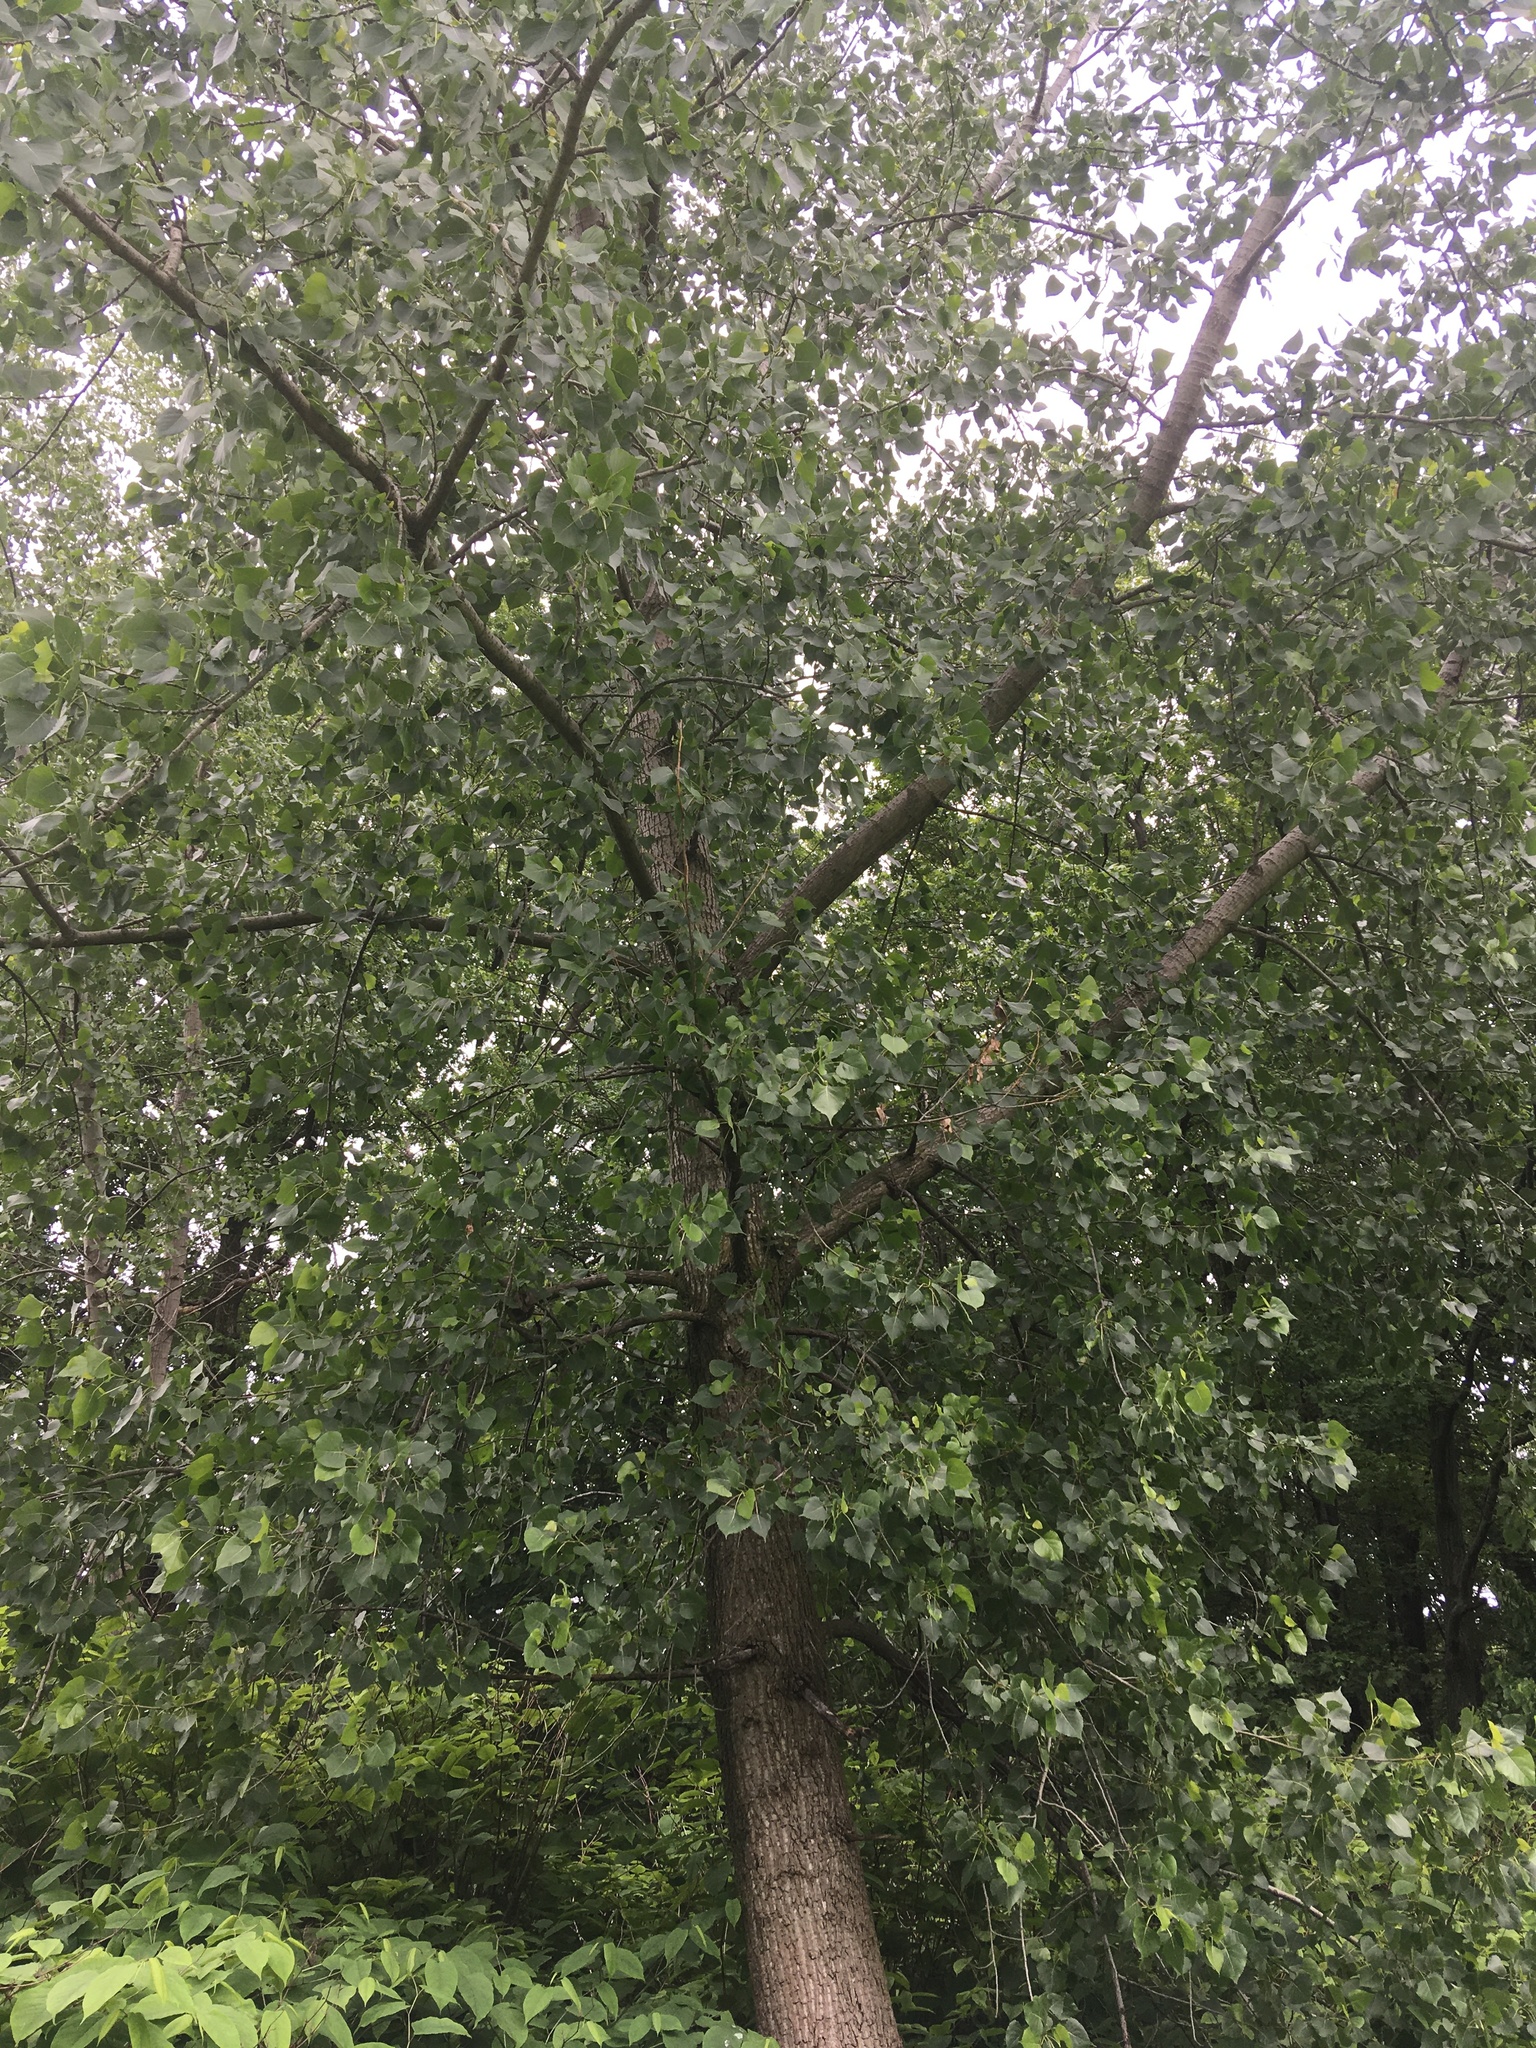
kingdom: Plantae
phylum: Tracheophyta
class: Magnoliopsida
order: Malpighiales
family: Salicaceae
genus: Populus
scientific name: Populus deltoides
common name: Eastern cottonwood
